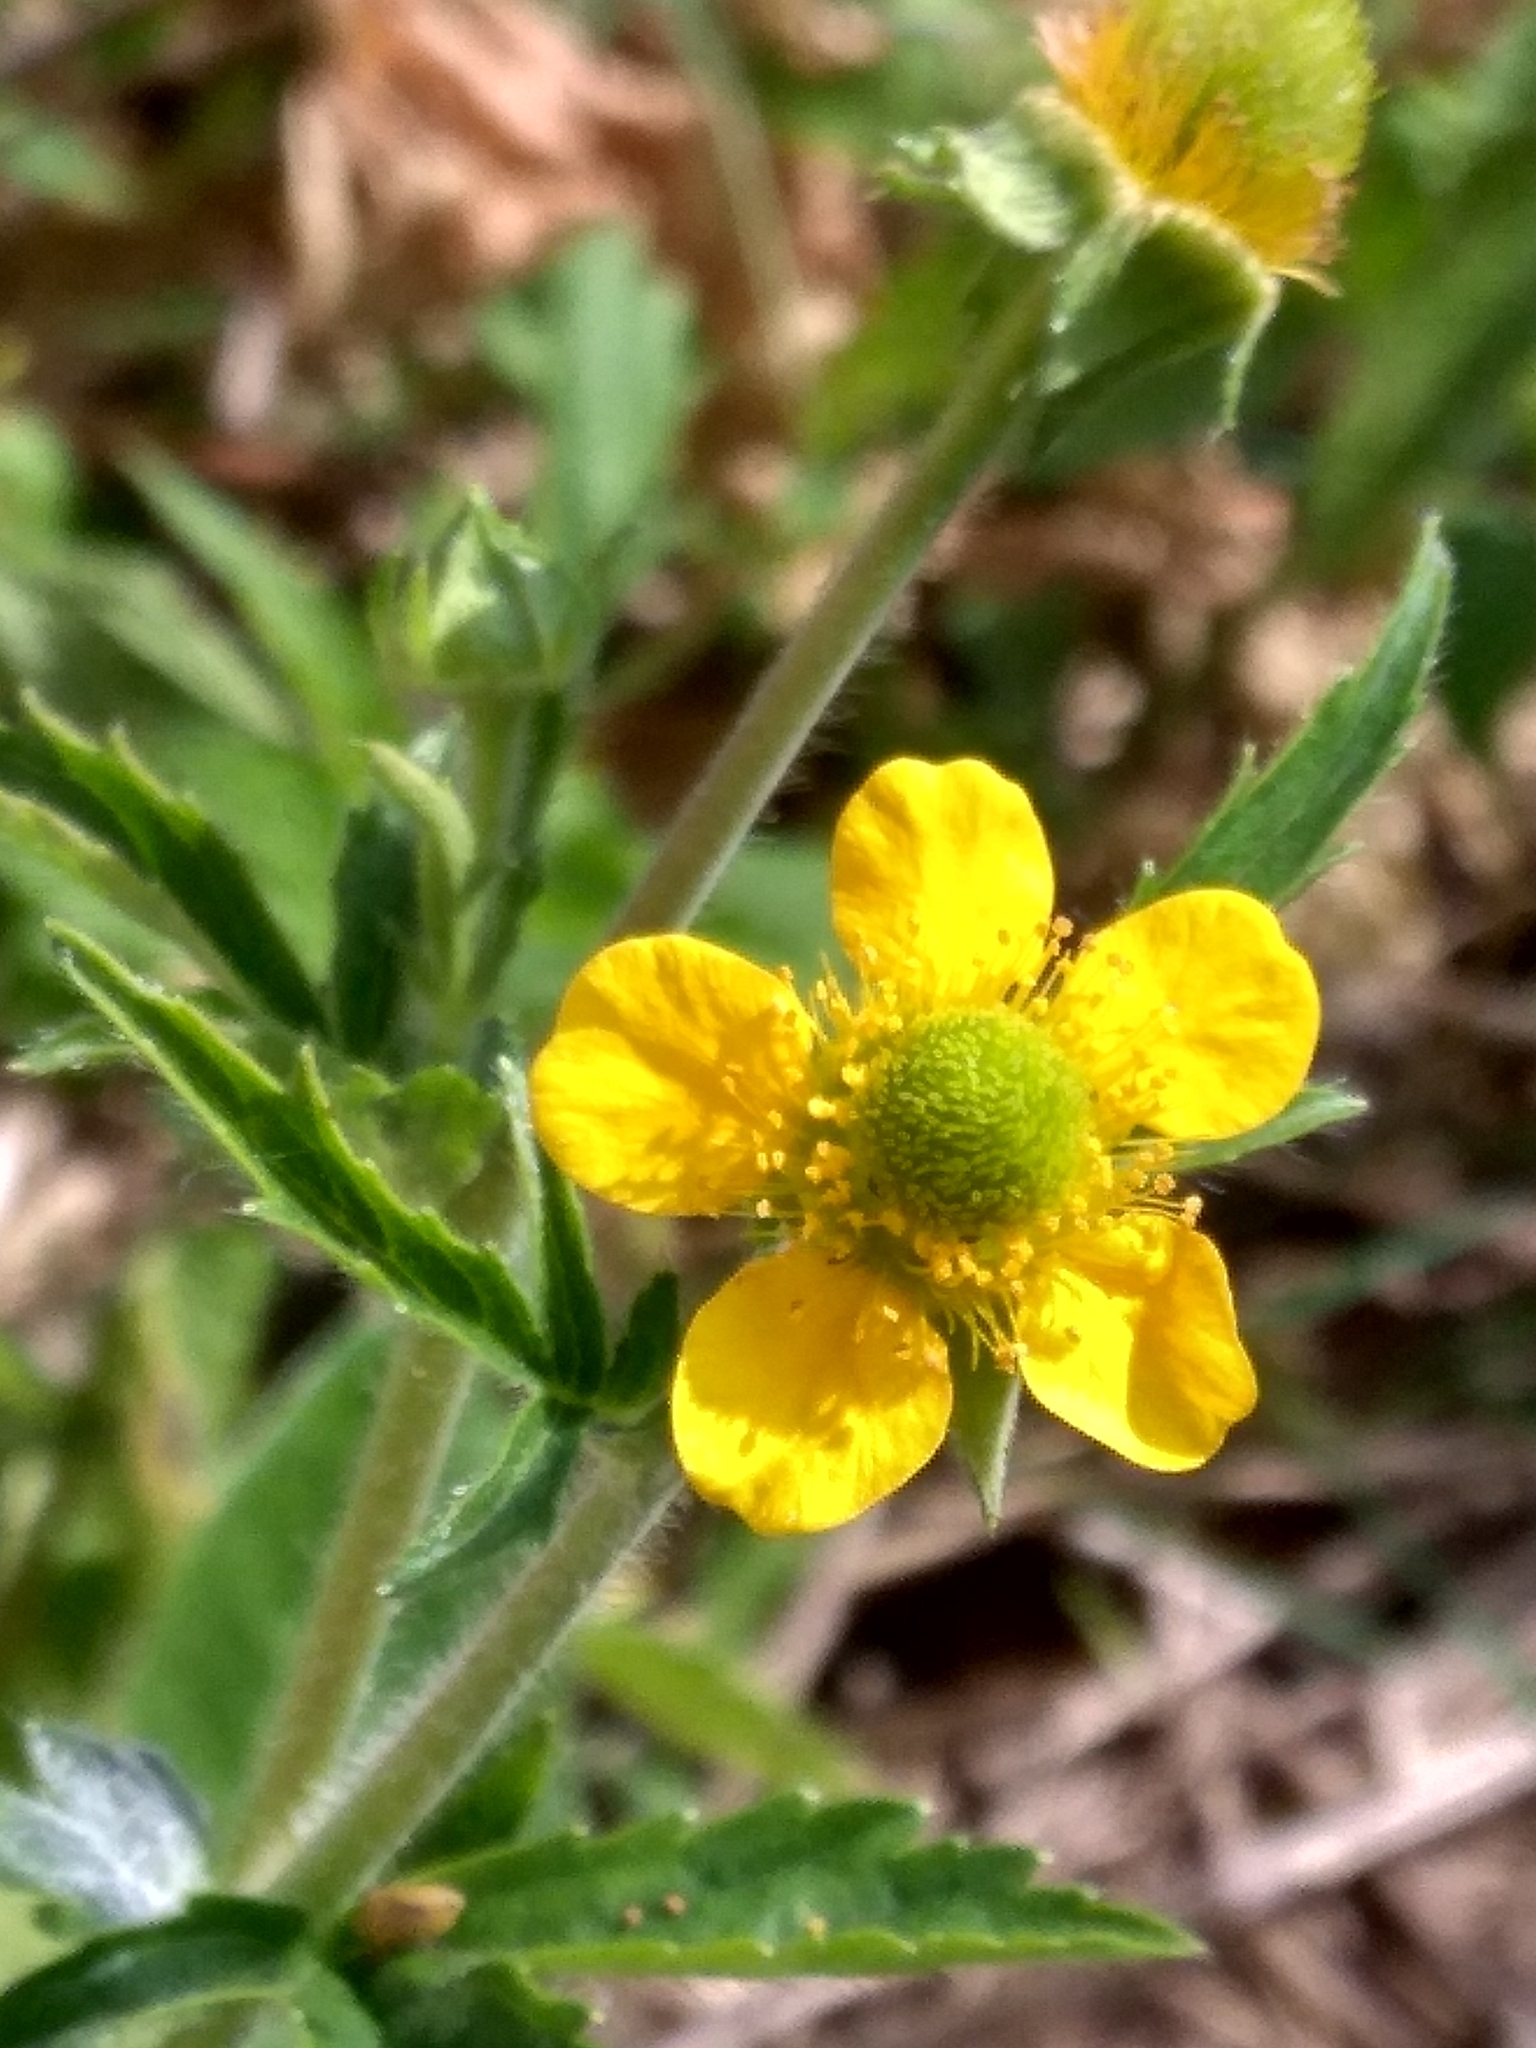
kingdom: Plantae
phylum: Tracheophyta
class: Magnoliopsida
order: Rosales
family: Rosaceae
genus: Geum
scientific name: Geum aleppicum
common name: Yellow avens
